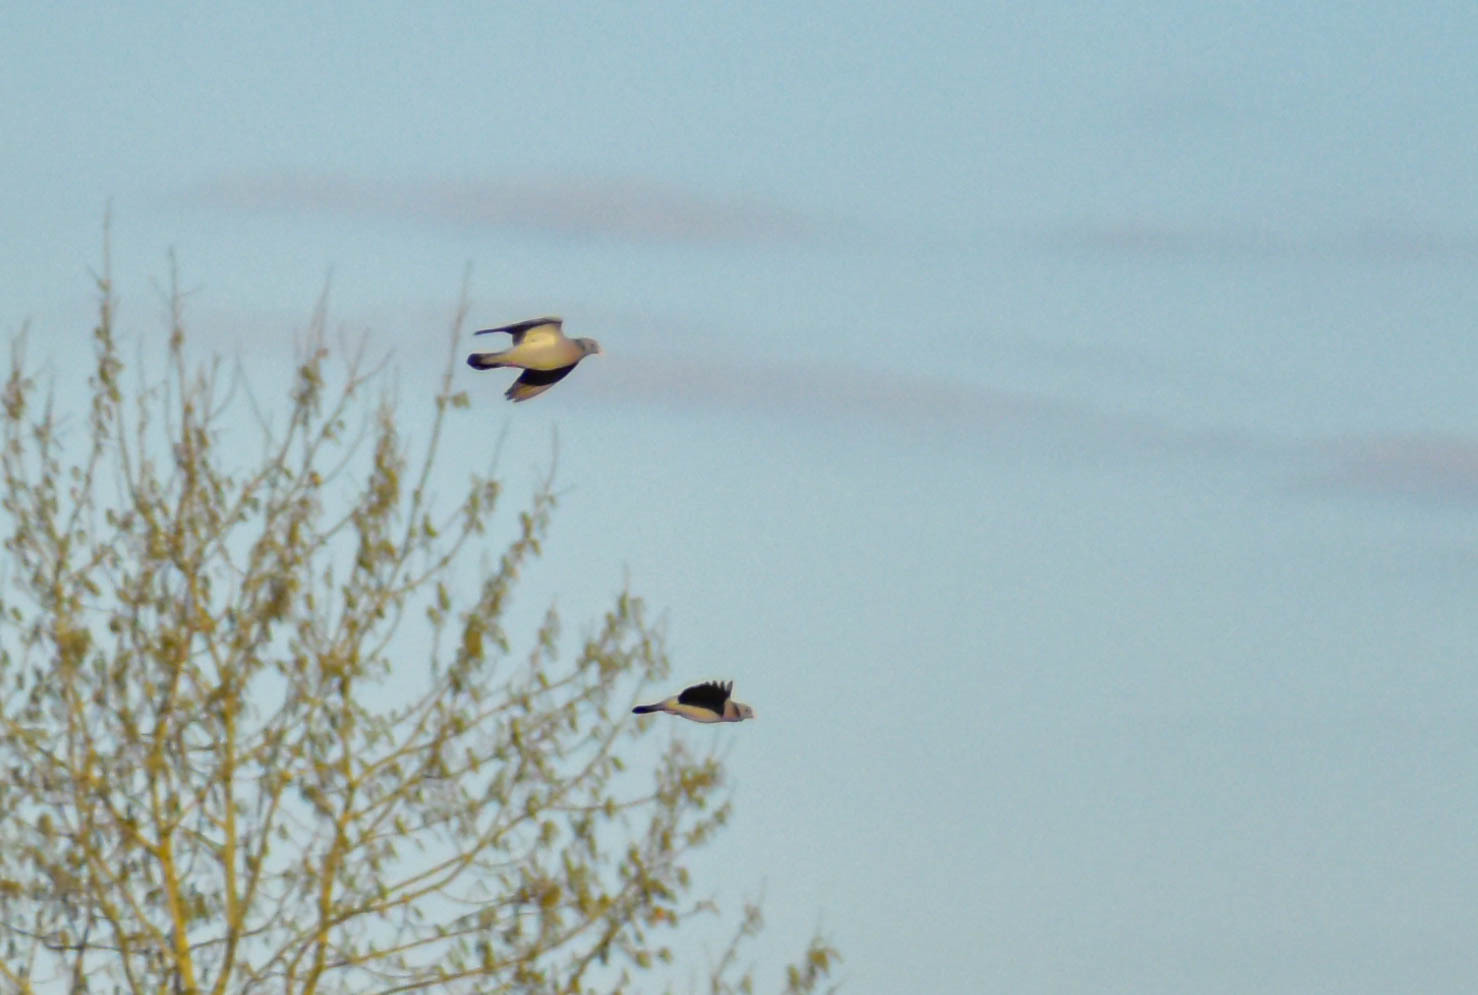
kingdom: Animalia
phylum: Chordata
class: Aves
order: Columbiformes
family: Columbidae
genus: Columba
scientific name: Columba oenas
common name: Stock dove
